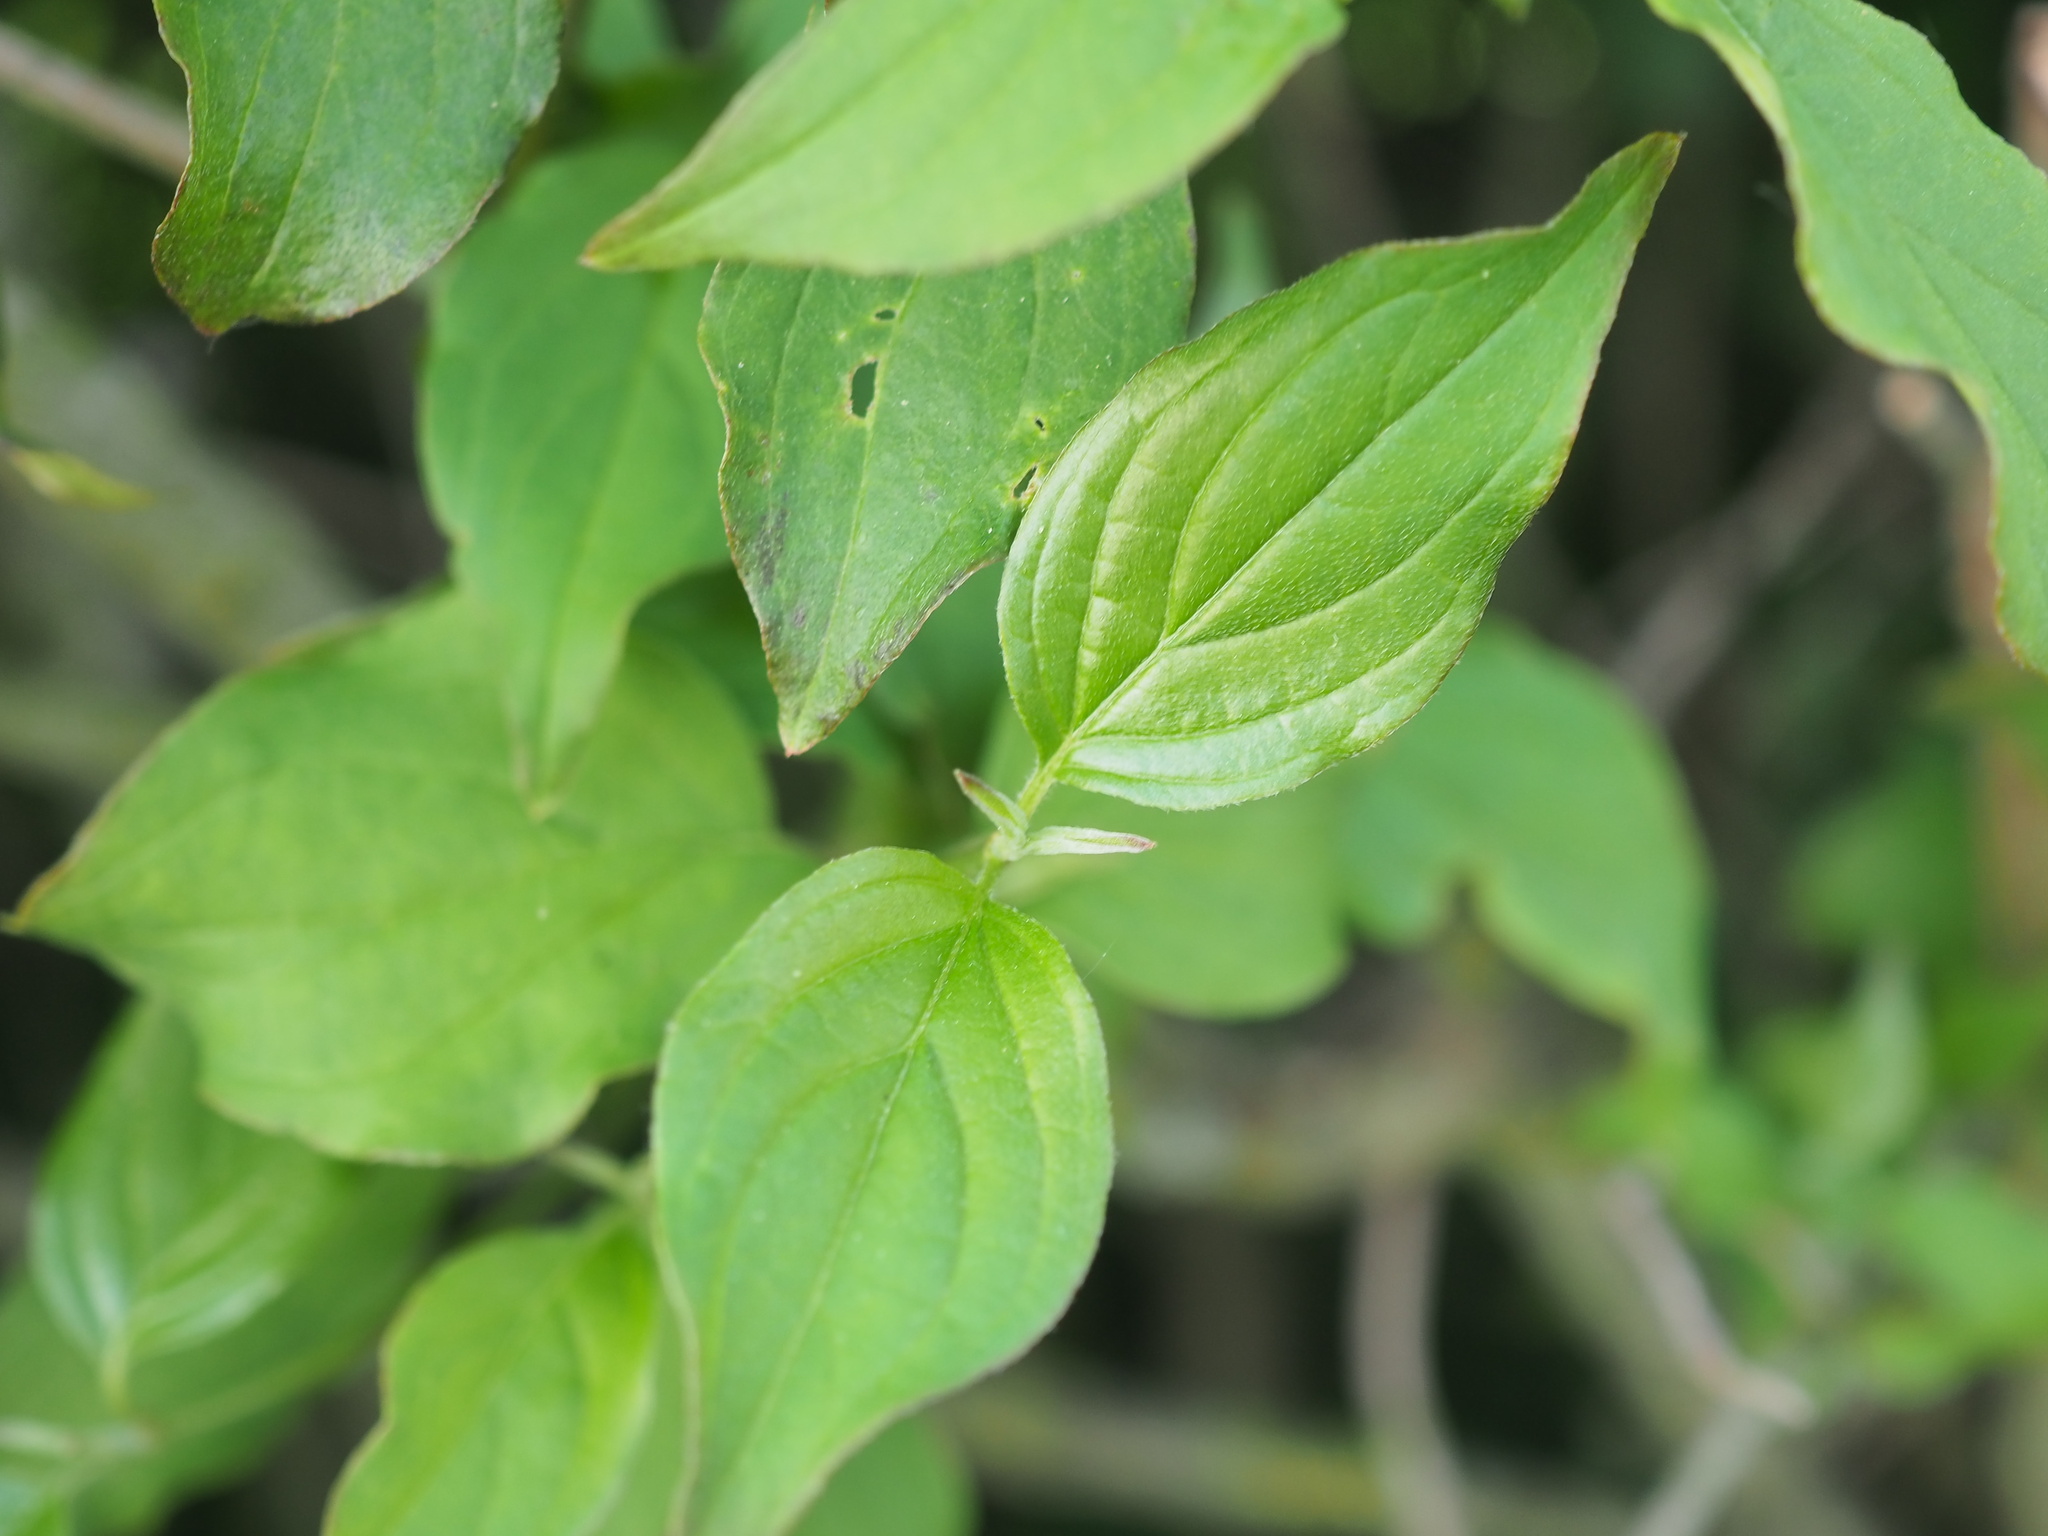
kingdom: Plantae
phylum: Tracheophyta
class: Magnoliopsida
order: Cornales
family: Cornaceae
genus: Cornus
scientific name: Cornus sanguinea
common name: Dogwood
